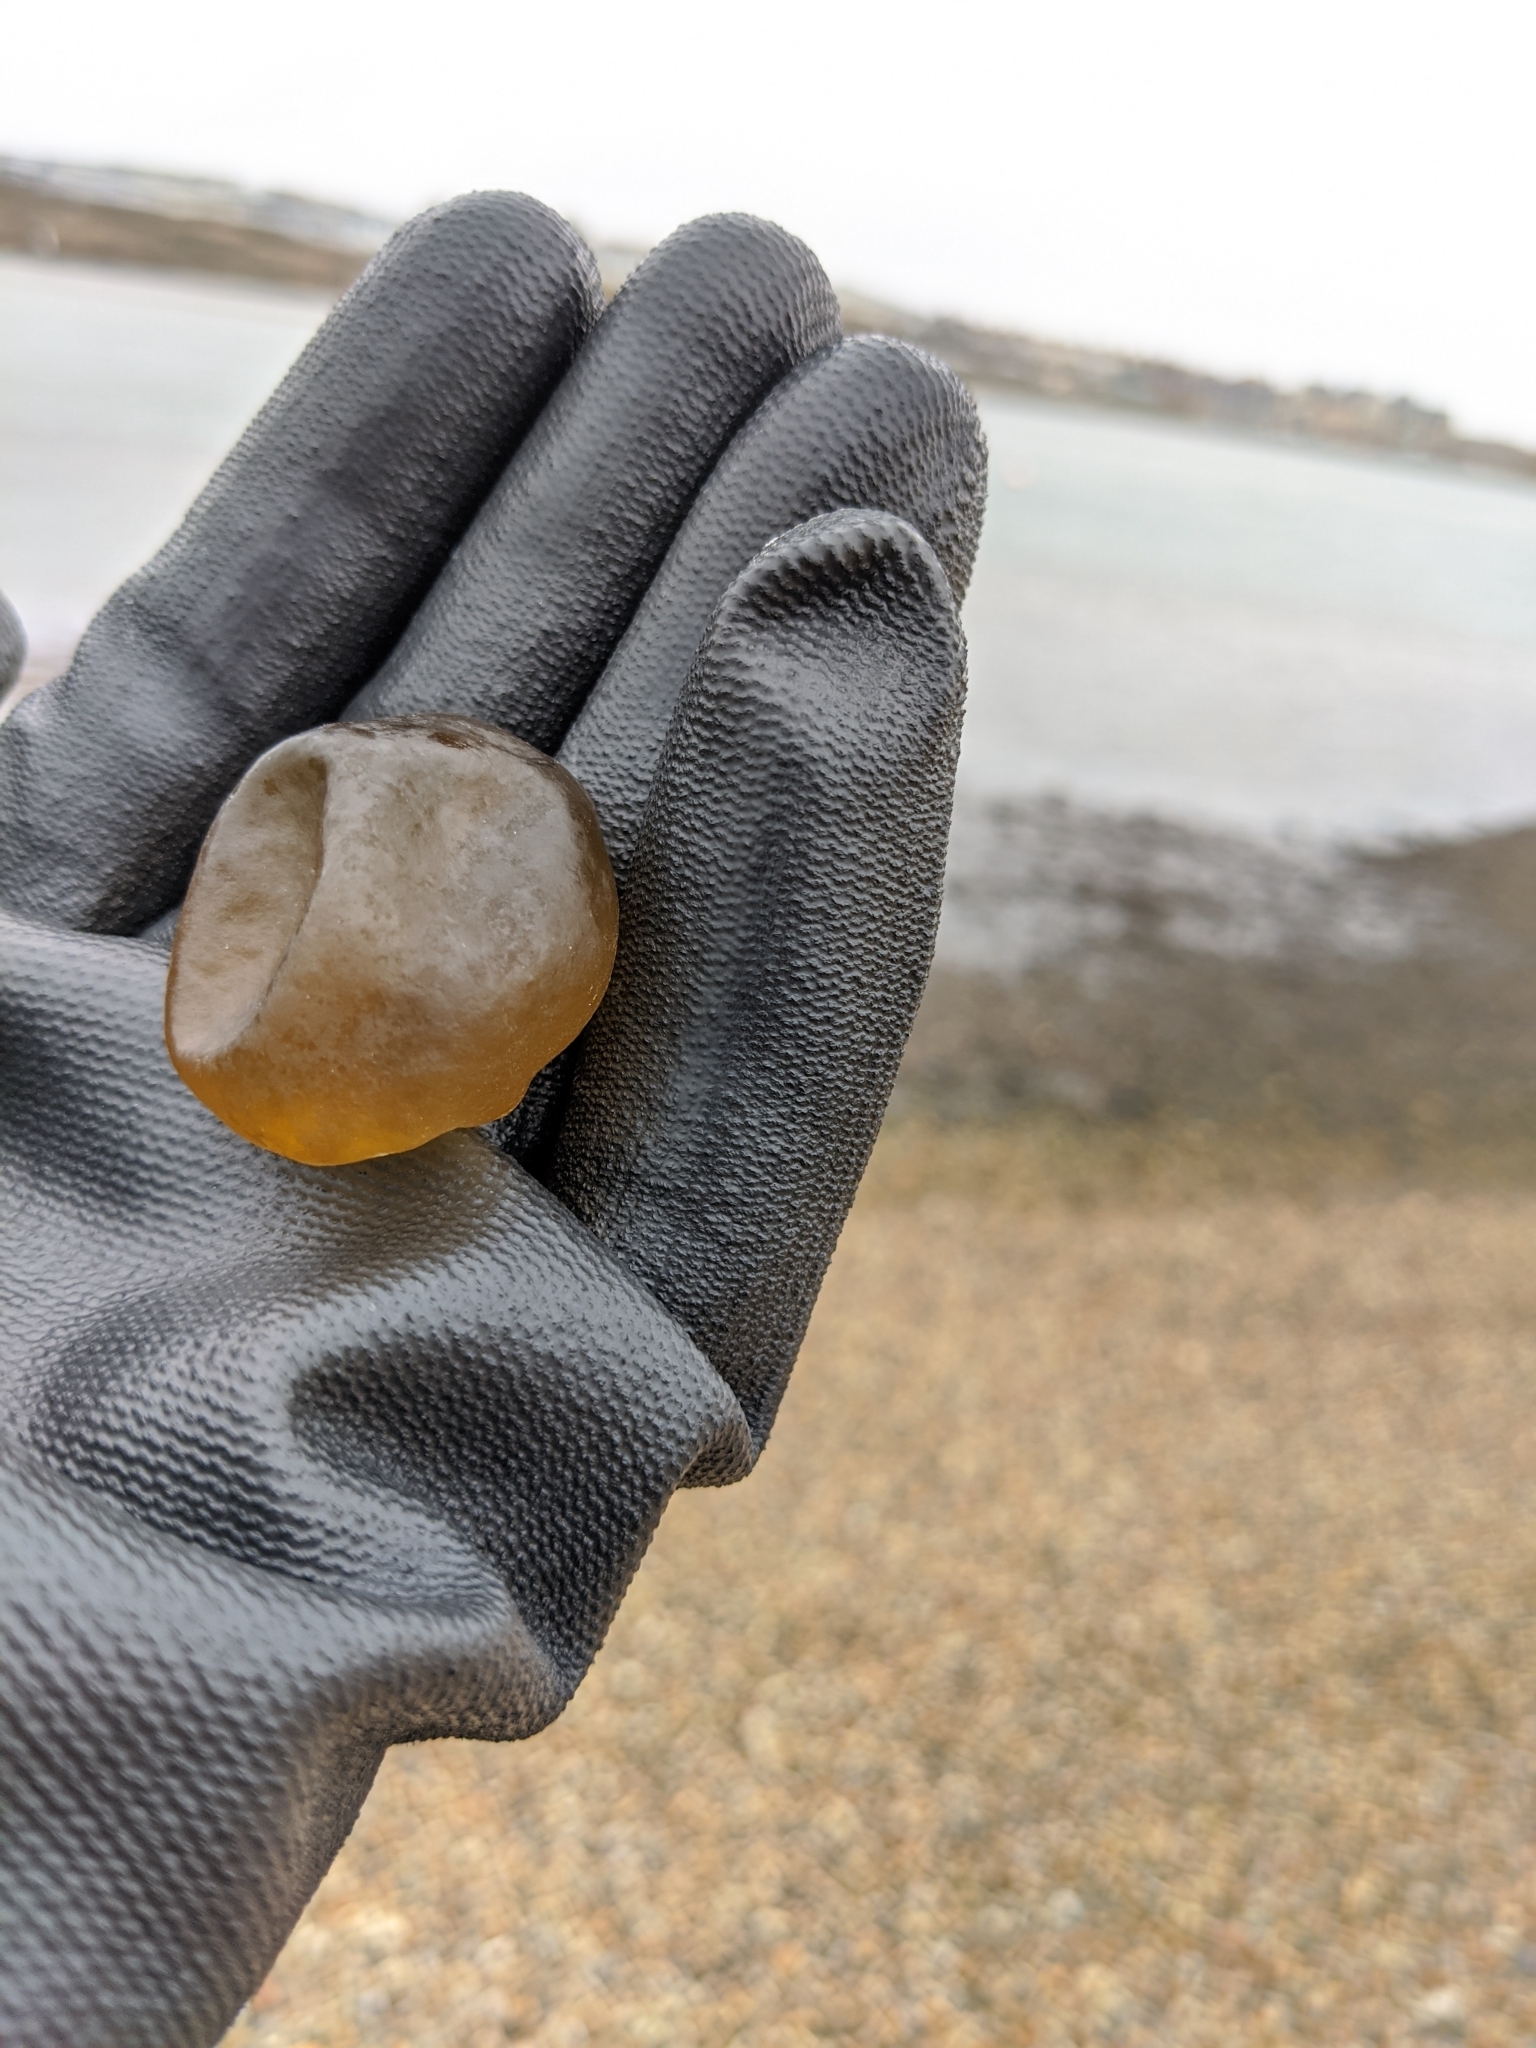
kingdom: Chromista
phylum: Ochrophyta
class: Phaeophyceae
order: Scytosiphonales
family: Scytosiphonaceae
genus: Colpomenia
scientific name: Colpomenia peregrina
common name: Oyster thief
